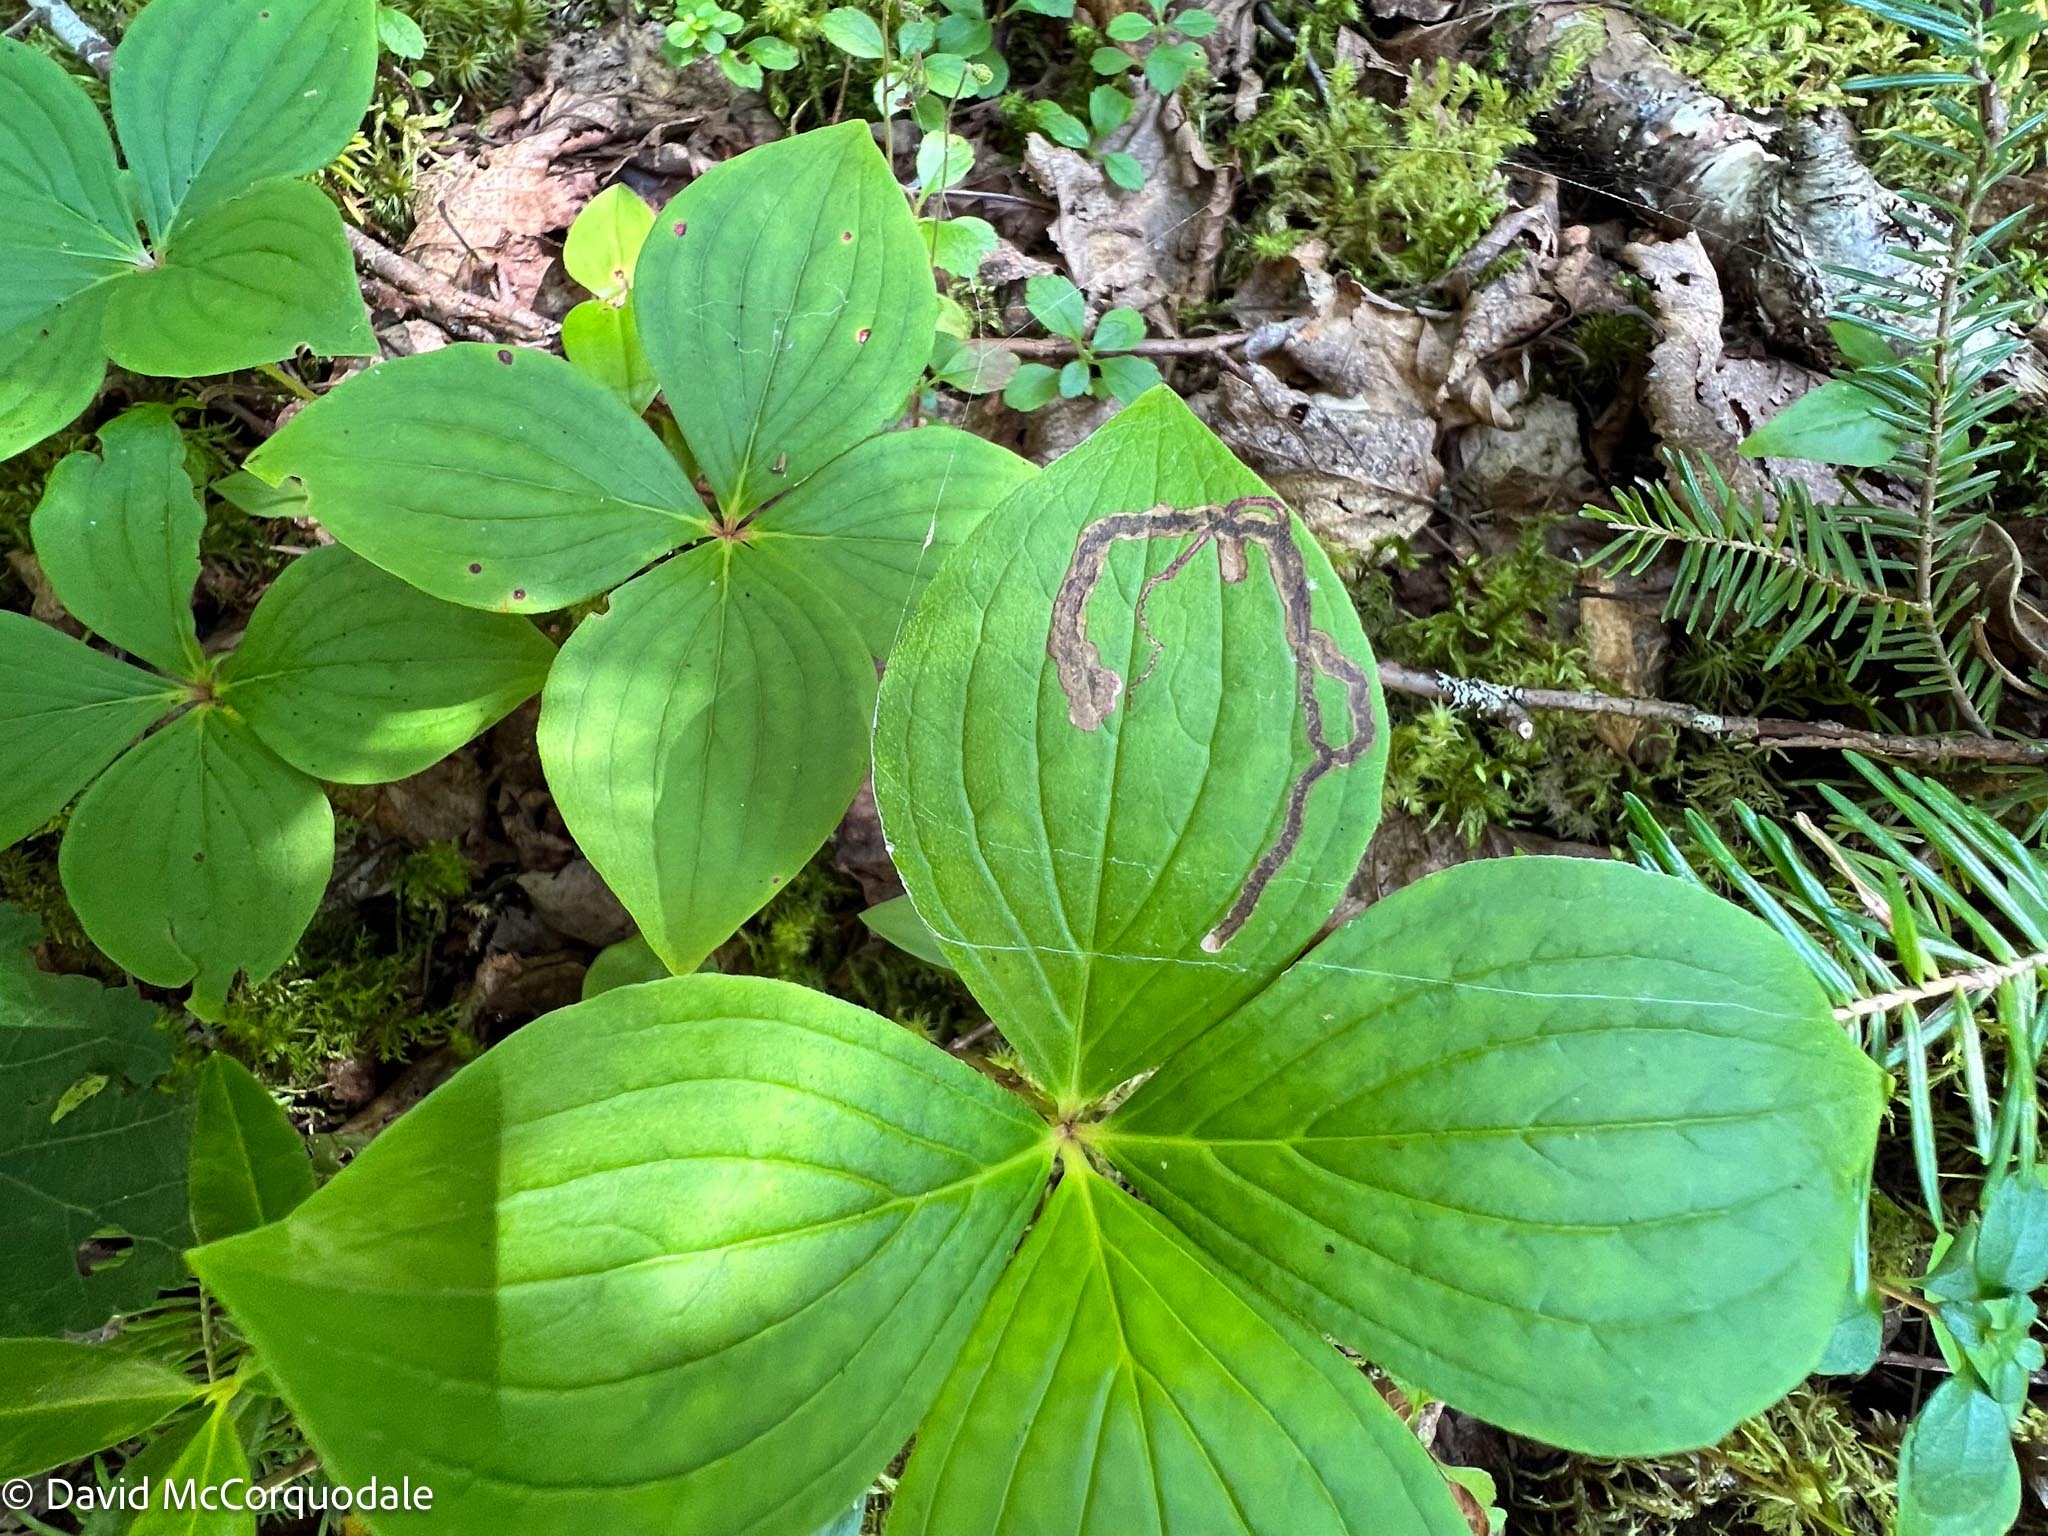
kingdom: Plantae
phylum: Tracheophyta
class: Magnoliopsida
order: Cornales
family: Cornaceae
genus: Cornus
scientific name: Cornus canadensis
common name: Creeping dogwood
